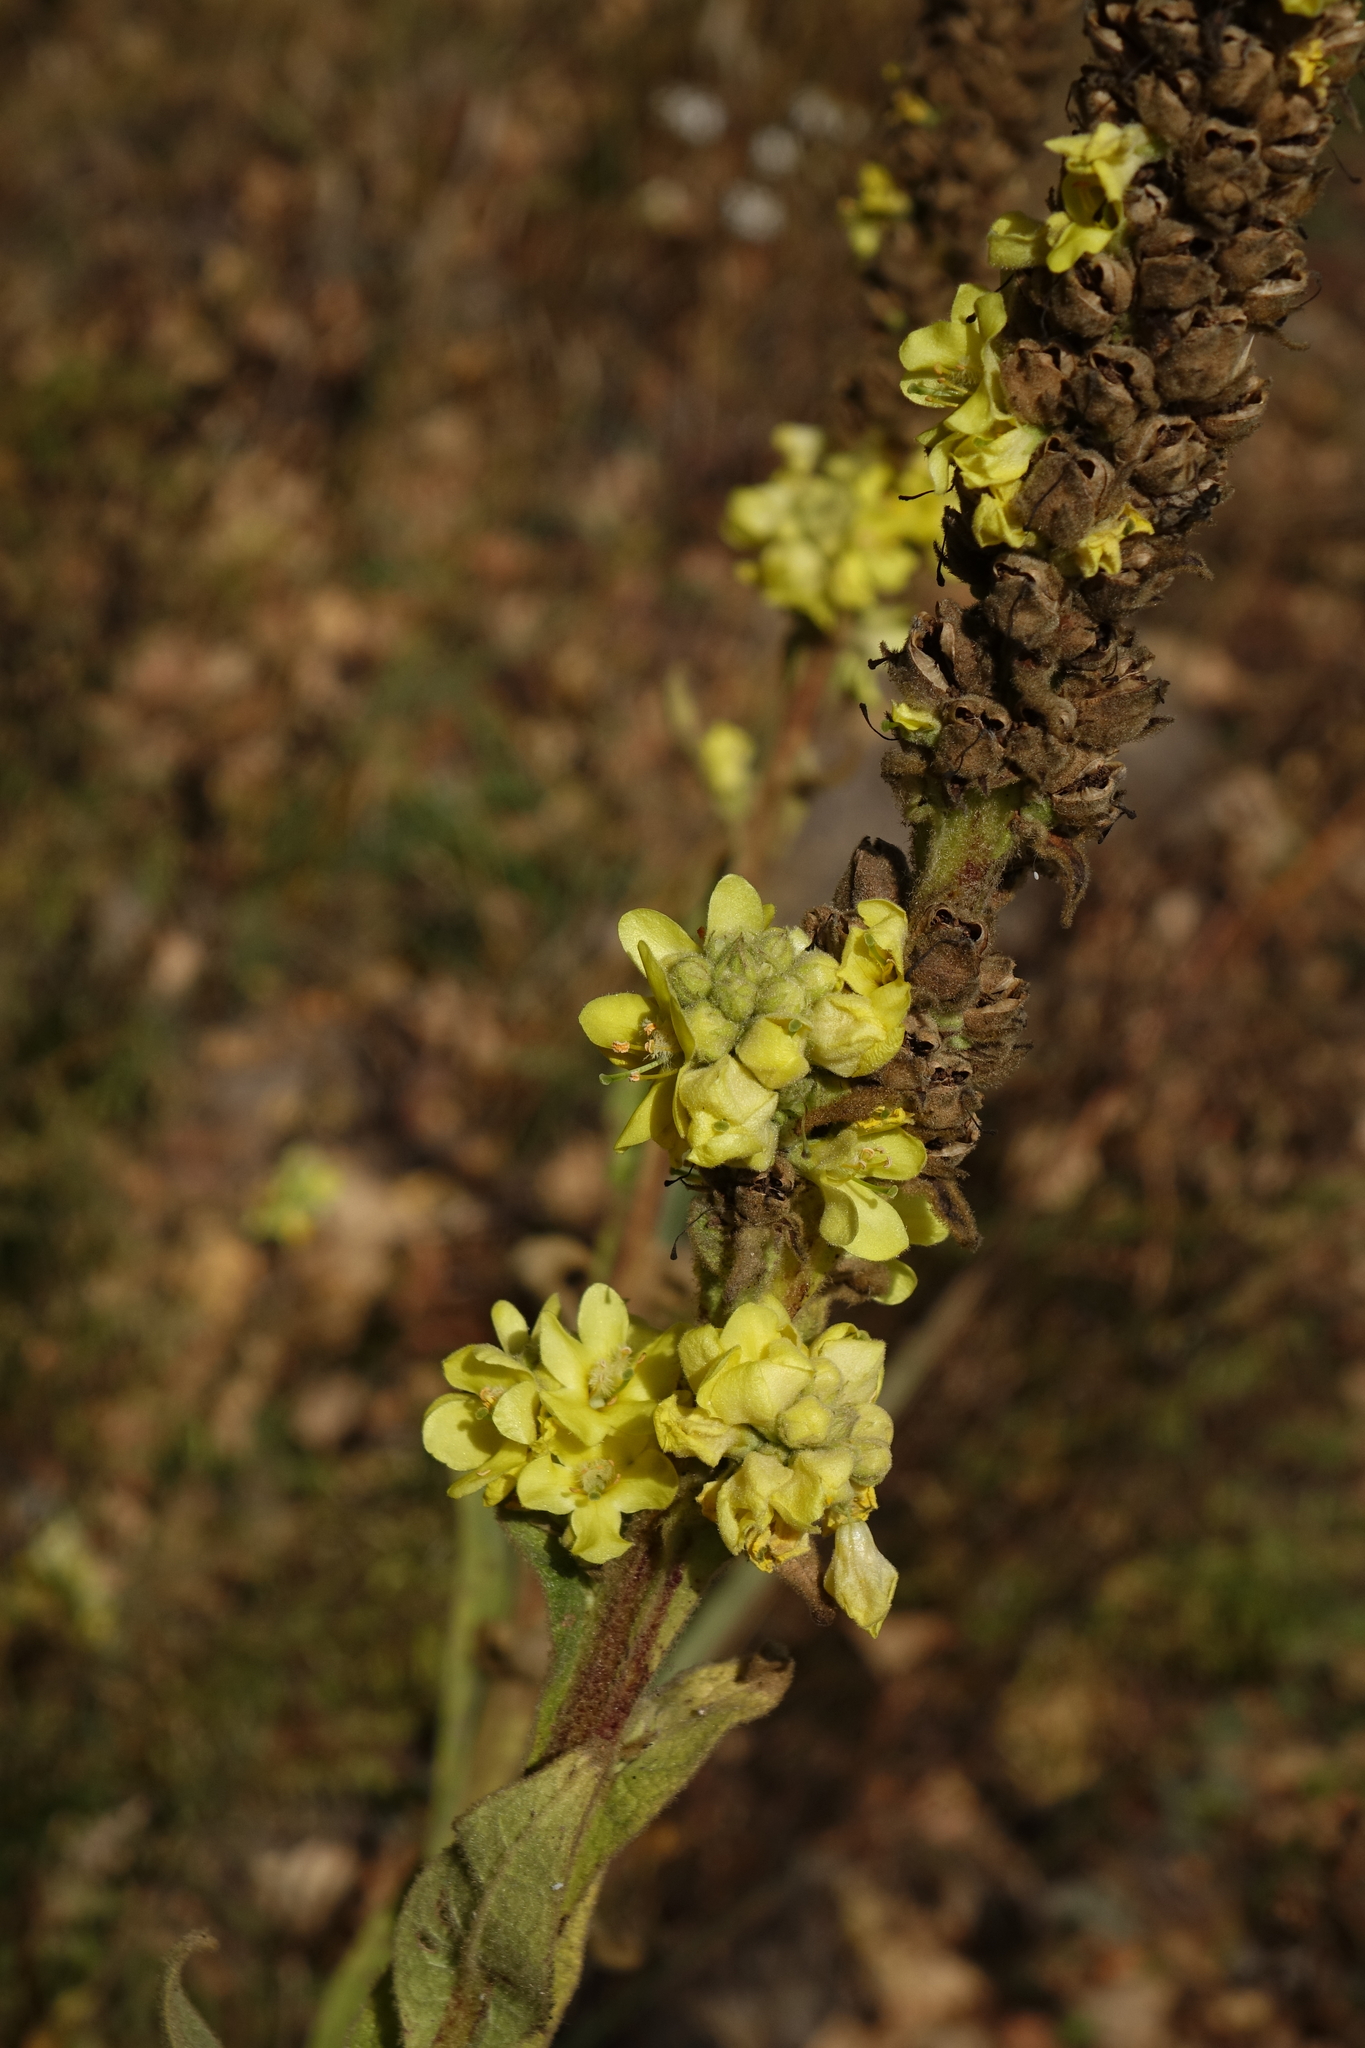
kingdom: Plantae
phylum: Tracheophyta
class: Magnoliopsida
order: Lamiales
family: Scrophulariaceae
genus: Verbascum
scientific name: Verbascum thapsus
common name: Common mullein
